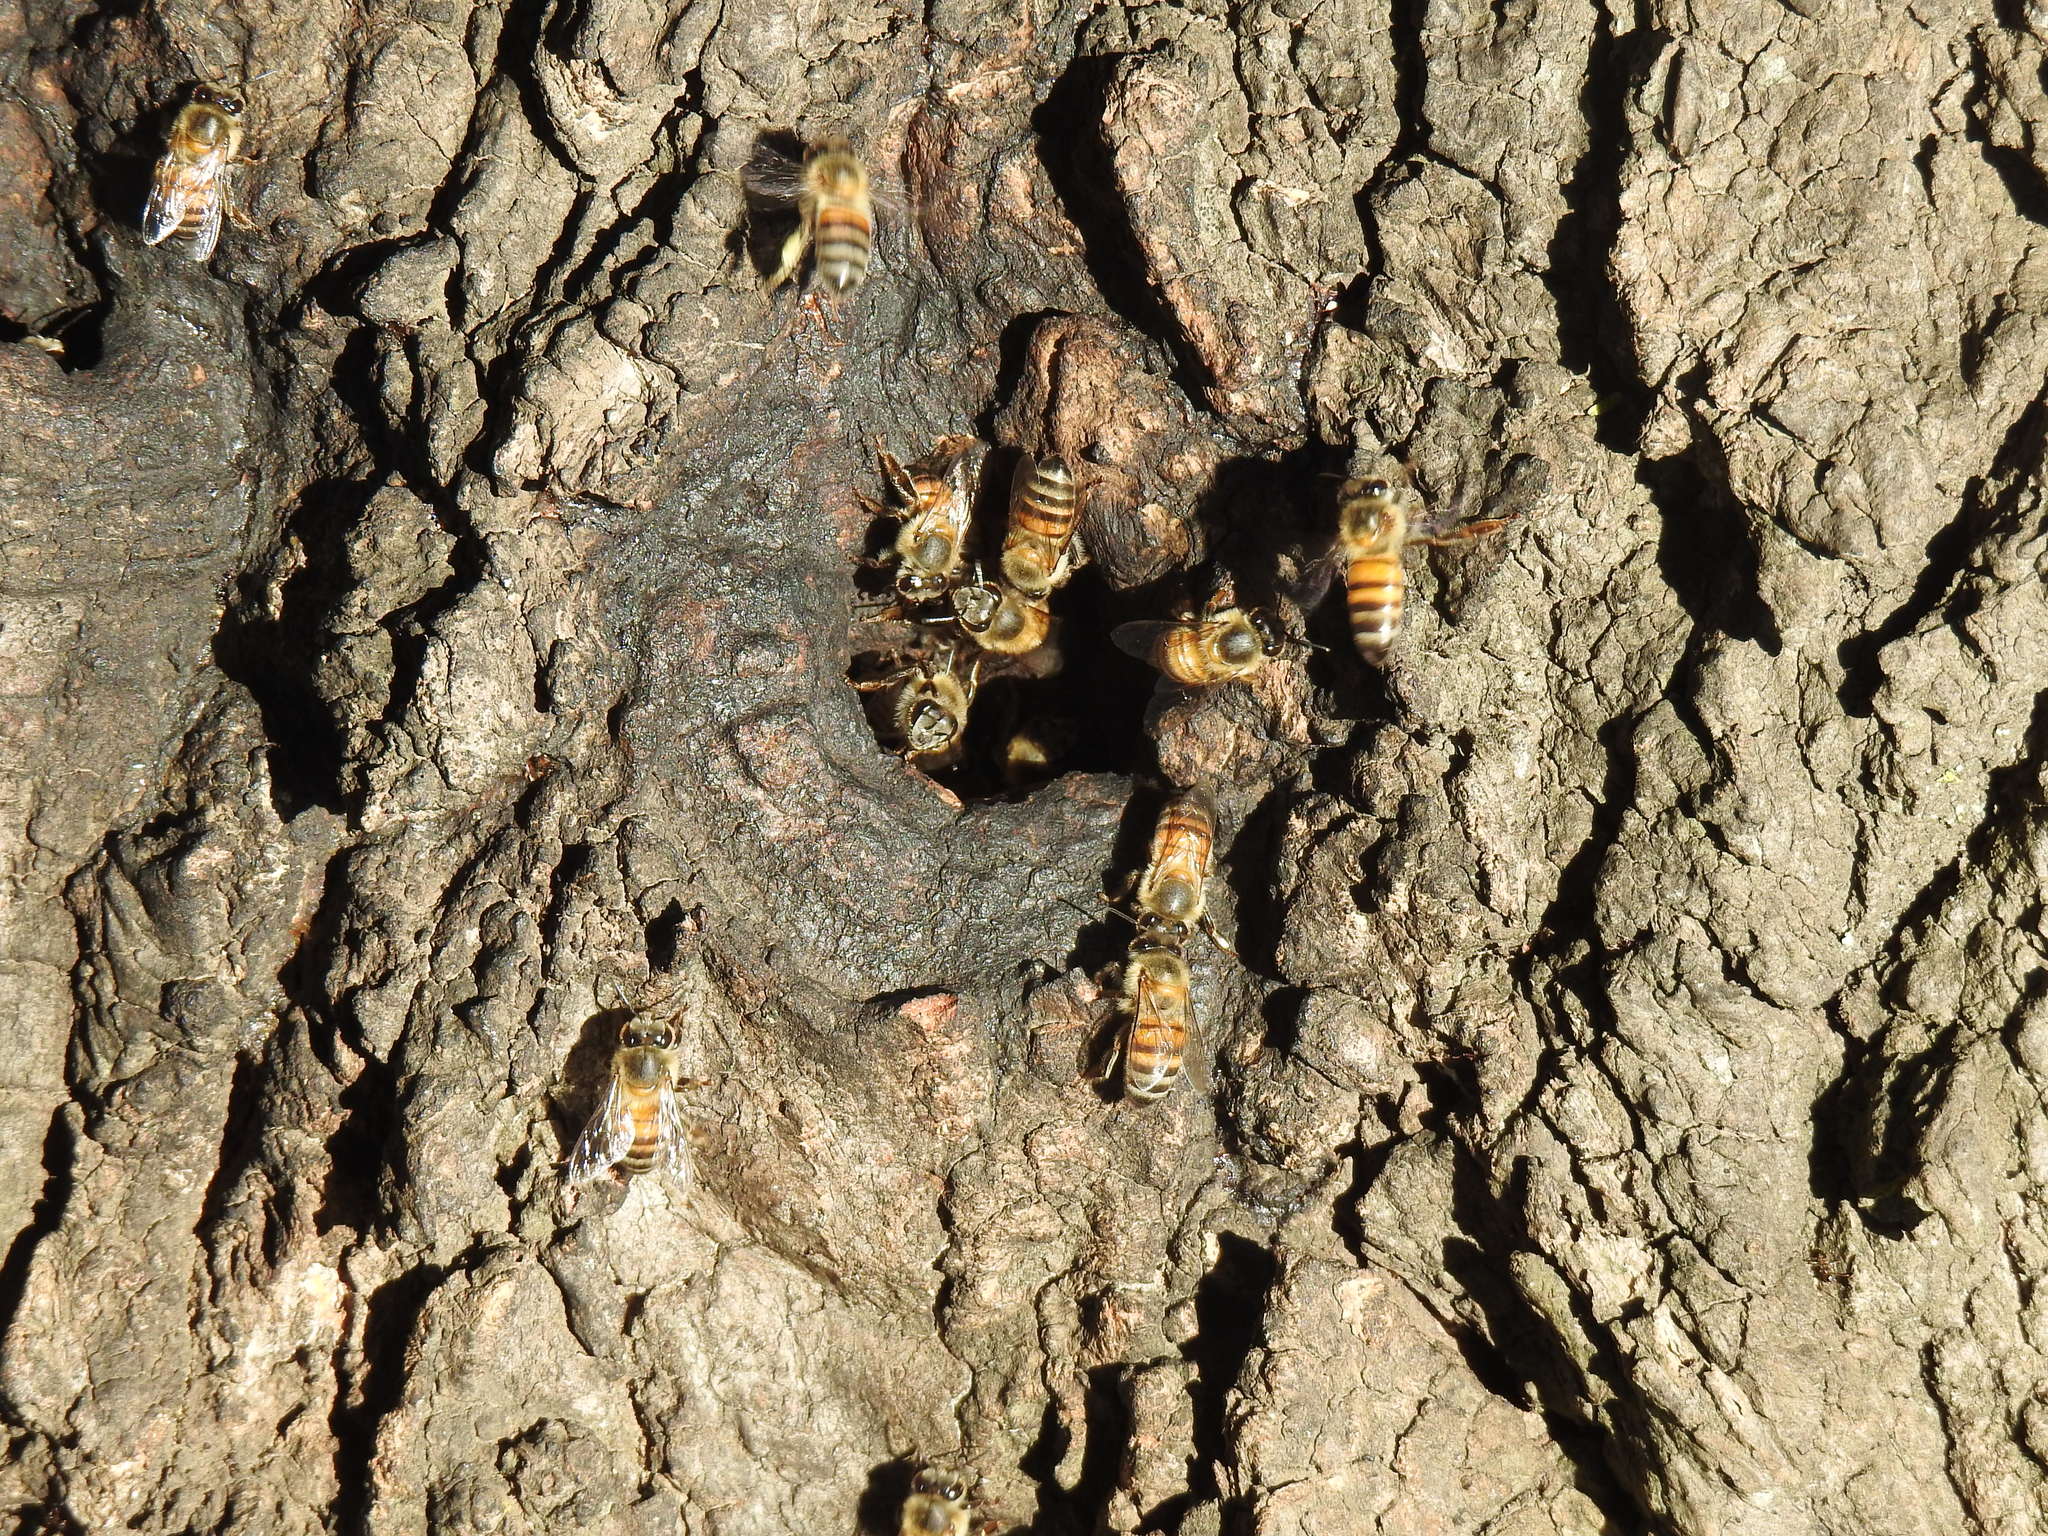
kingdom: Animalia
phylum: Arthropoda
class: Insecta
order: Hymenoptera
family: Apidae
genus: Apis
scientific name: Apis mellifera
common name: Honey bee
